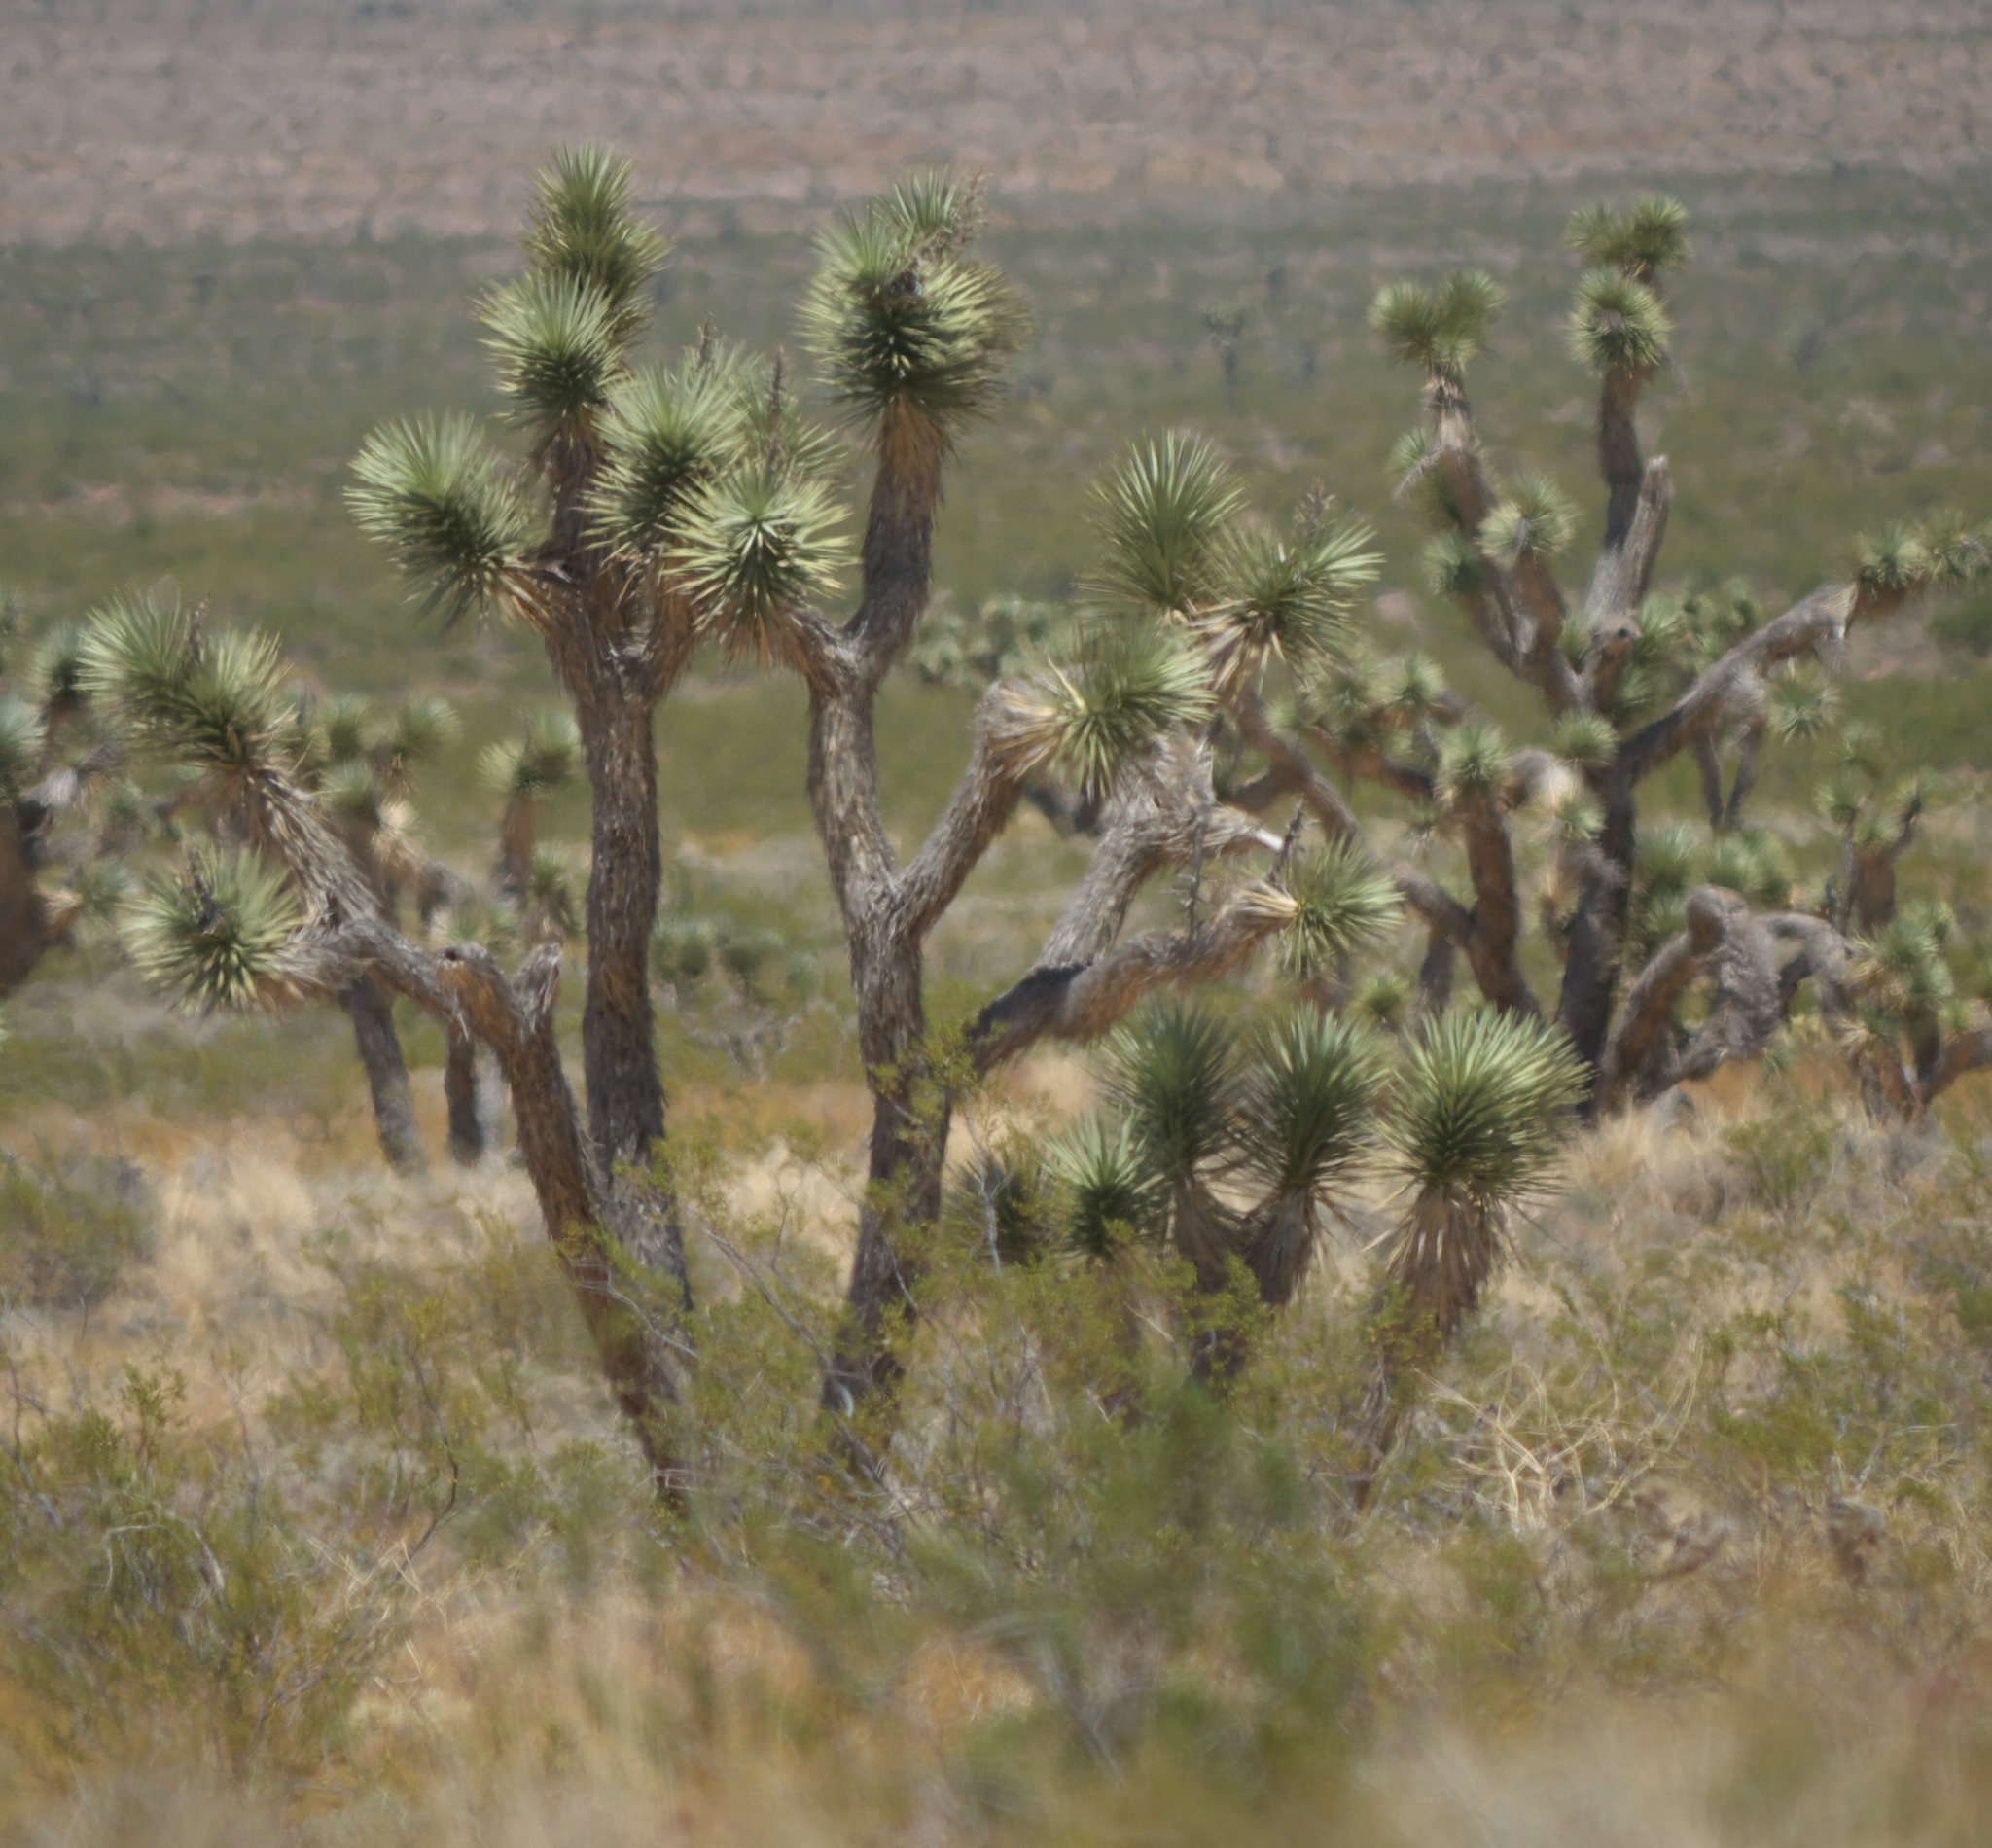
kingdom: Plantae
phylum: Tracheophyta
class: Liliopsida
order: Asparagales
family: Asparagaceae
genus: Yucca
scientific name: Yucca brevifolia
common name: Joshua tree
